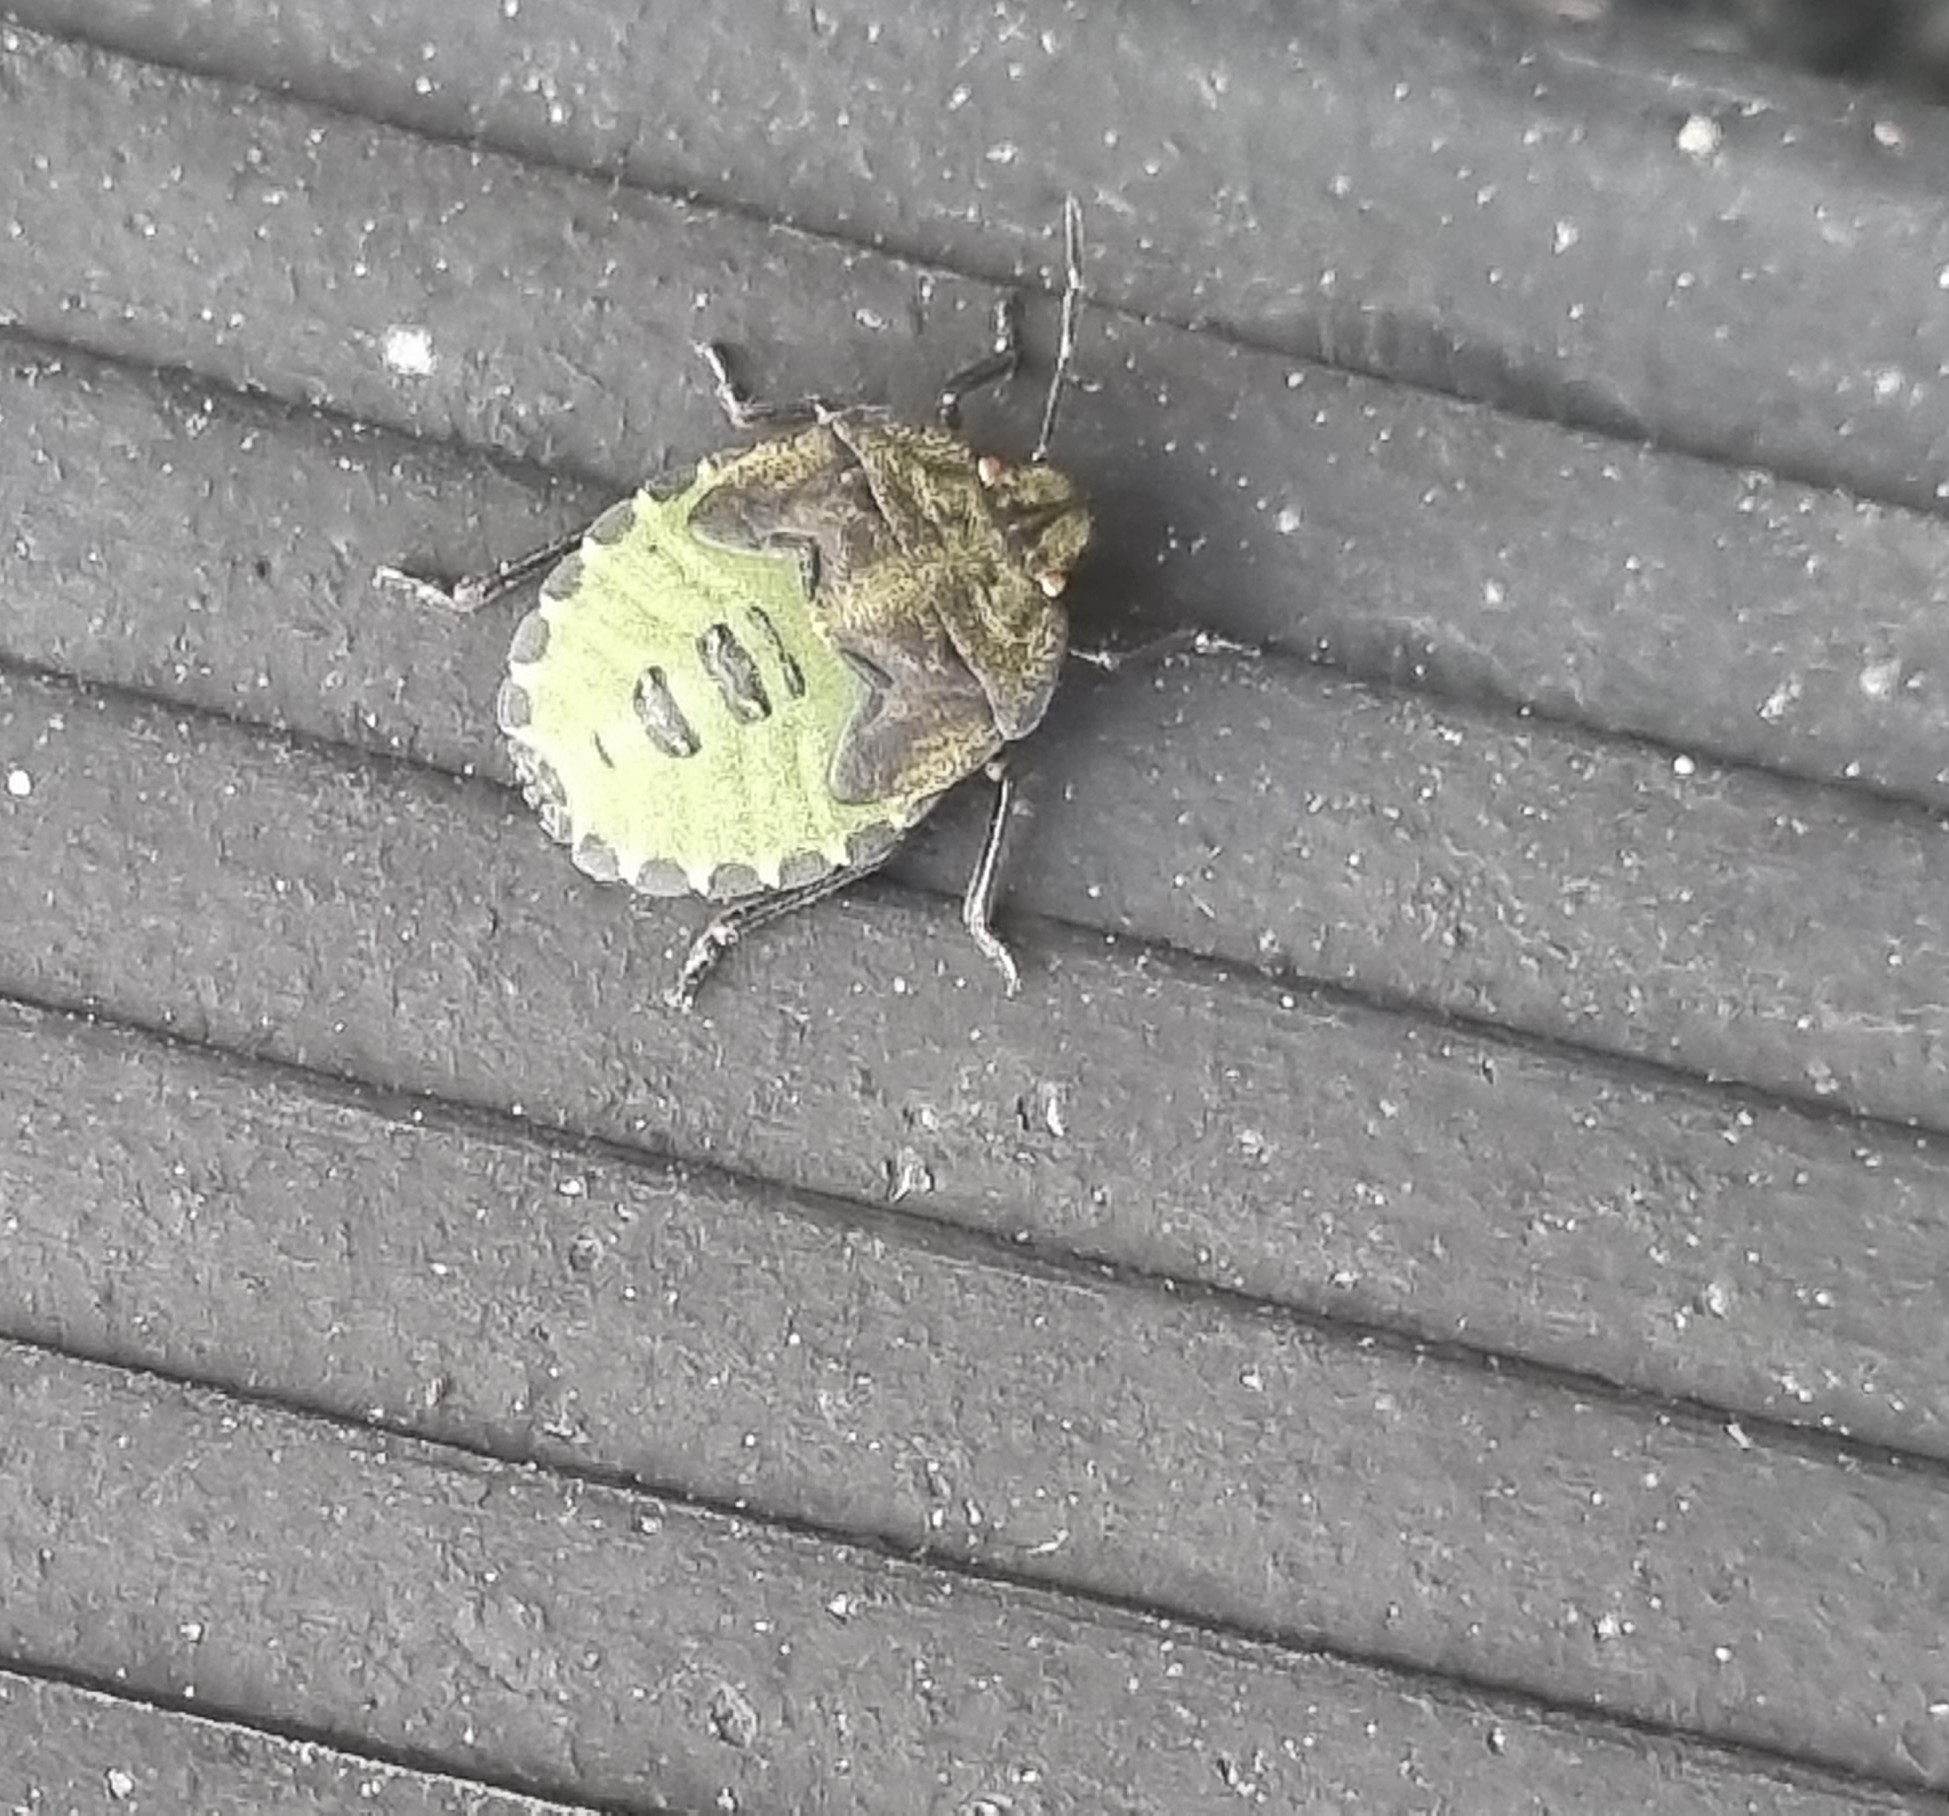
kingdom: Animalia
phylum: Arthropoda
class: Insecta
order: Hemiptera
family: Pentatomidae
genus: Palomena
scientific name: Palomena prasina
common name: Green shieldbug
